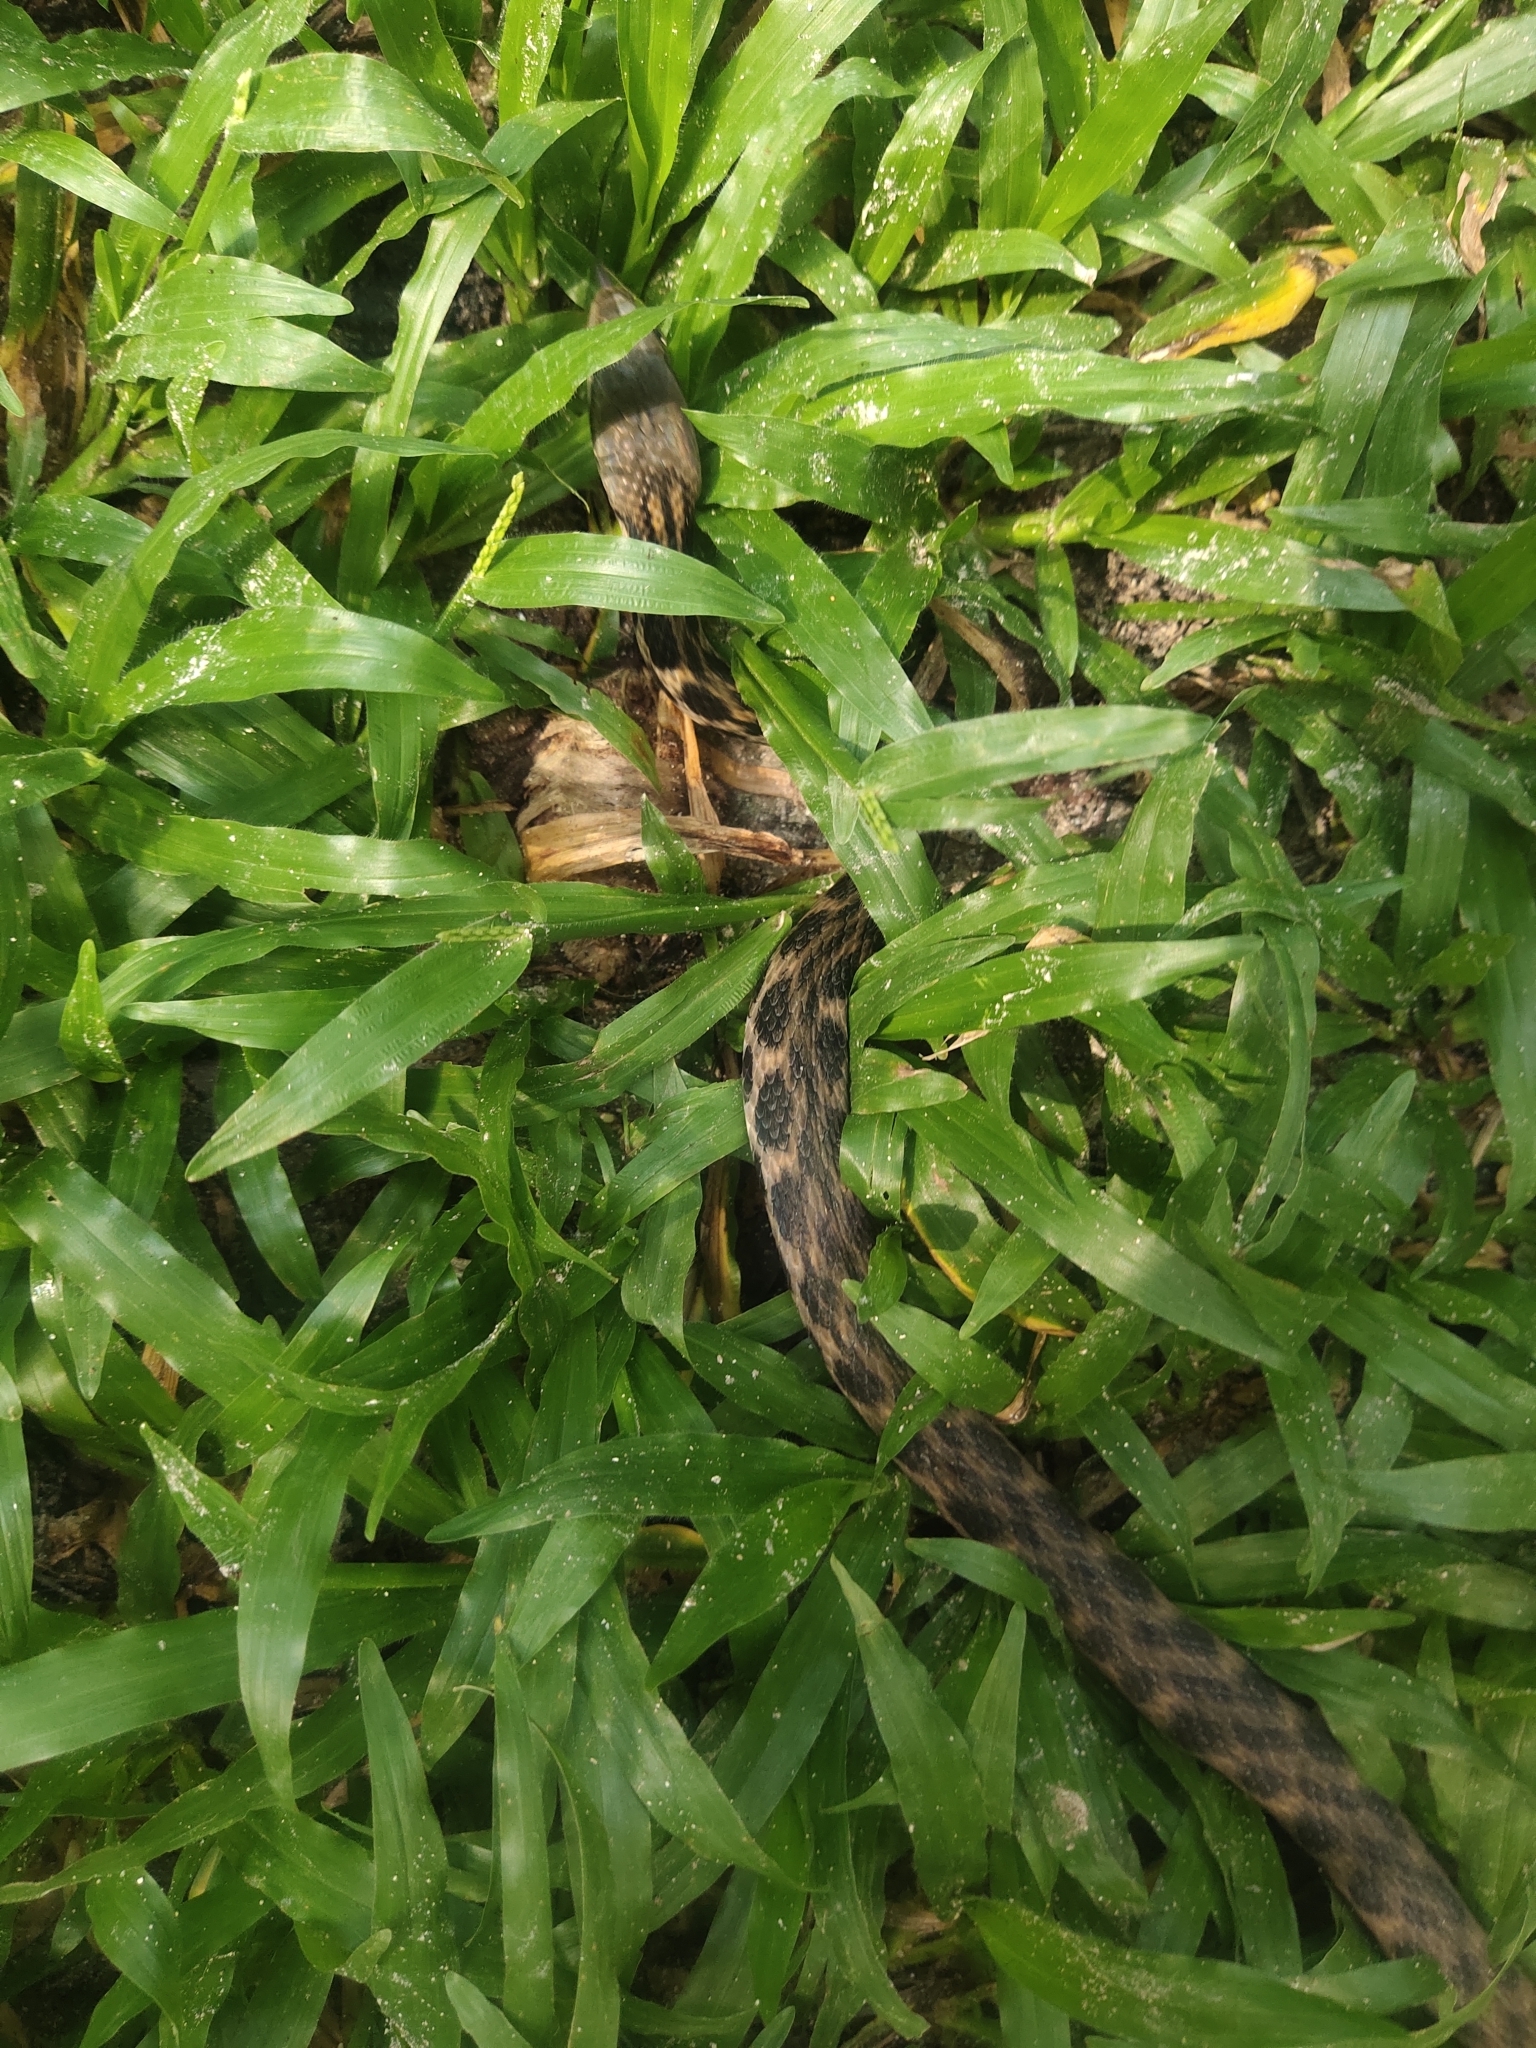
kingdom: Animalia
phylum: Chordata
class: Squamata
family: Colubridae
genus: Fowlea
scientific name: Fowlea piscator
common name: Asiatic water snake
